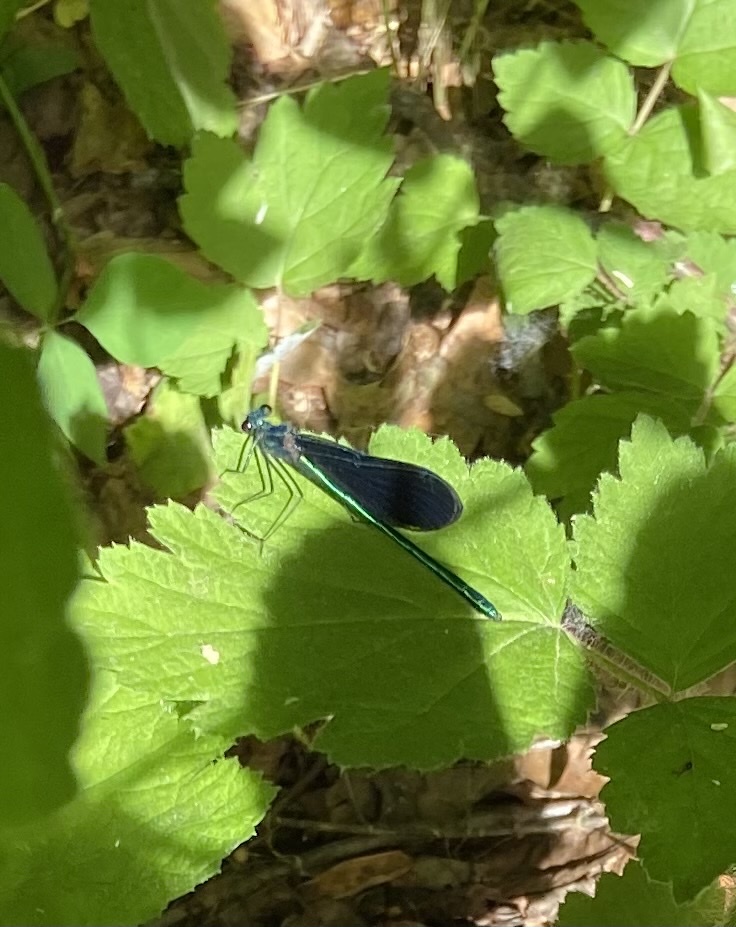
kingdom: Animalia
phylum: Arthropoda
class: Insecta
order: Odonata
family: Calopterygidae
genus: Calopteryx
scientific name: Calopteryx maculata
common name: Ebony jewelwing
